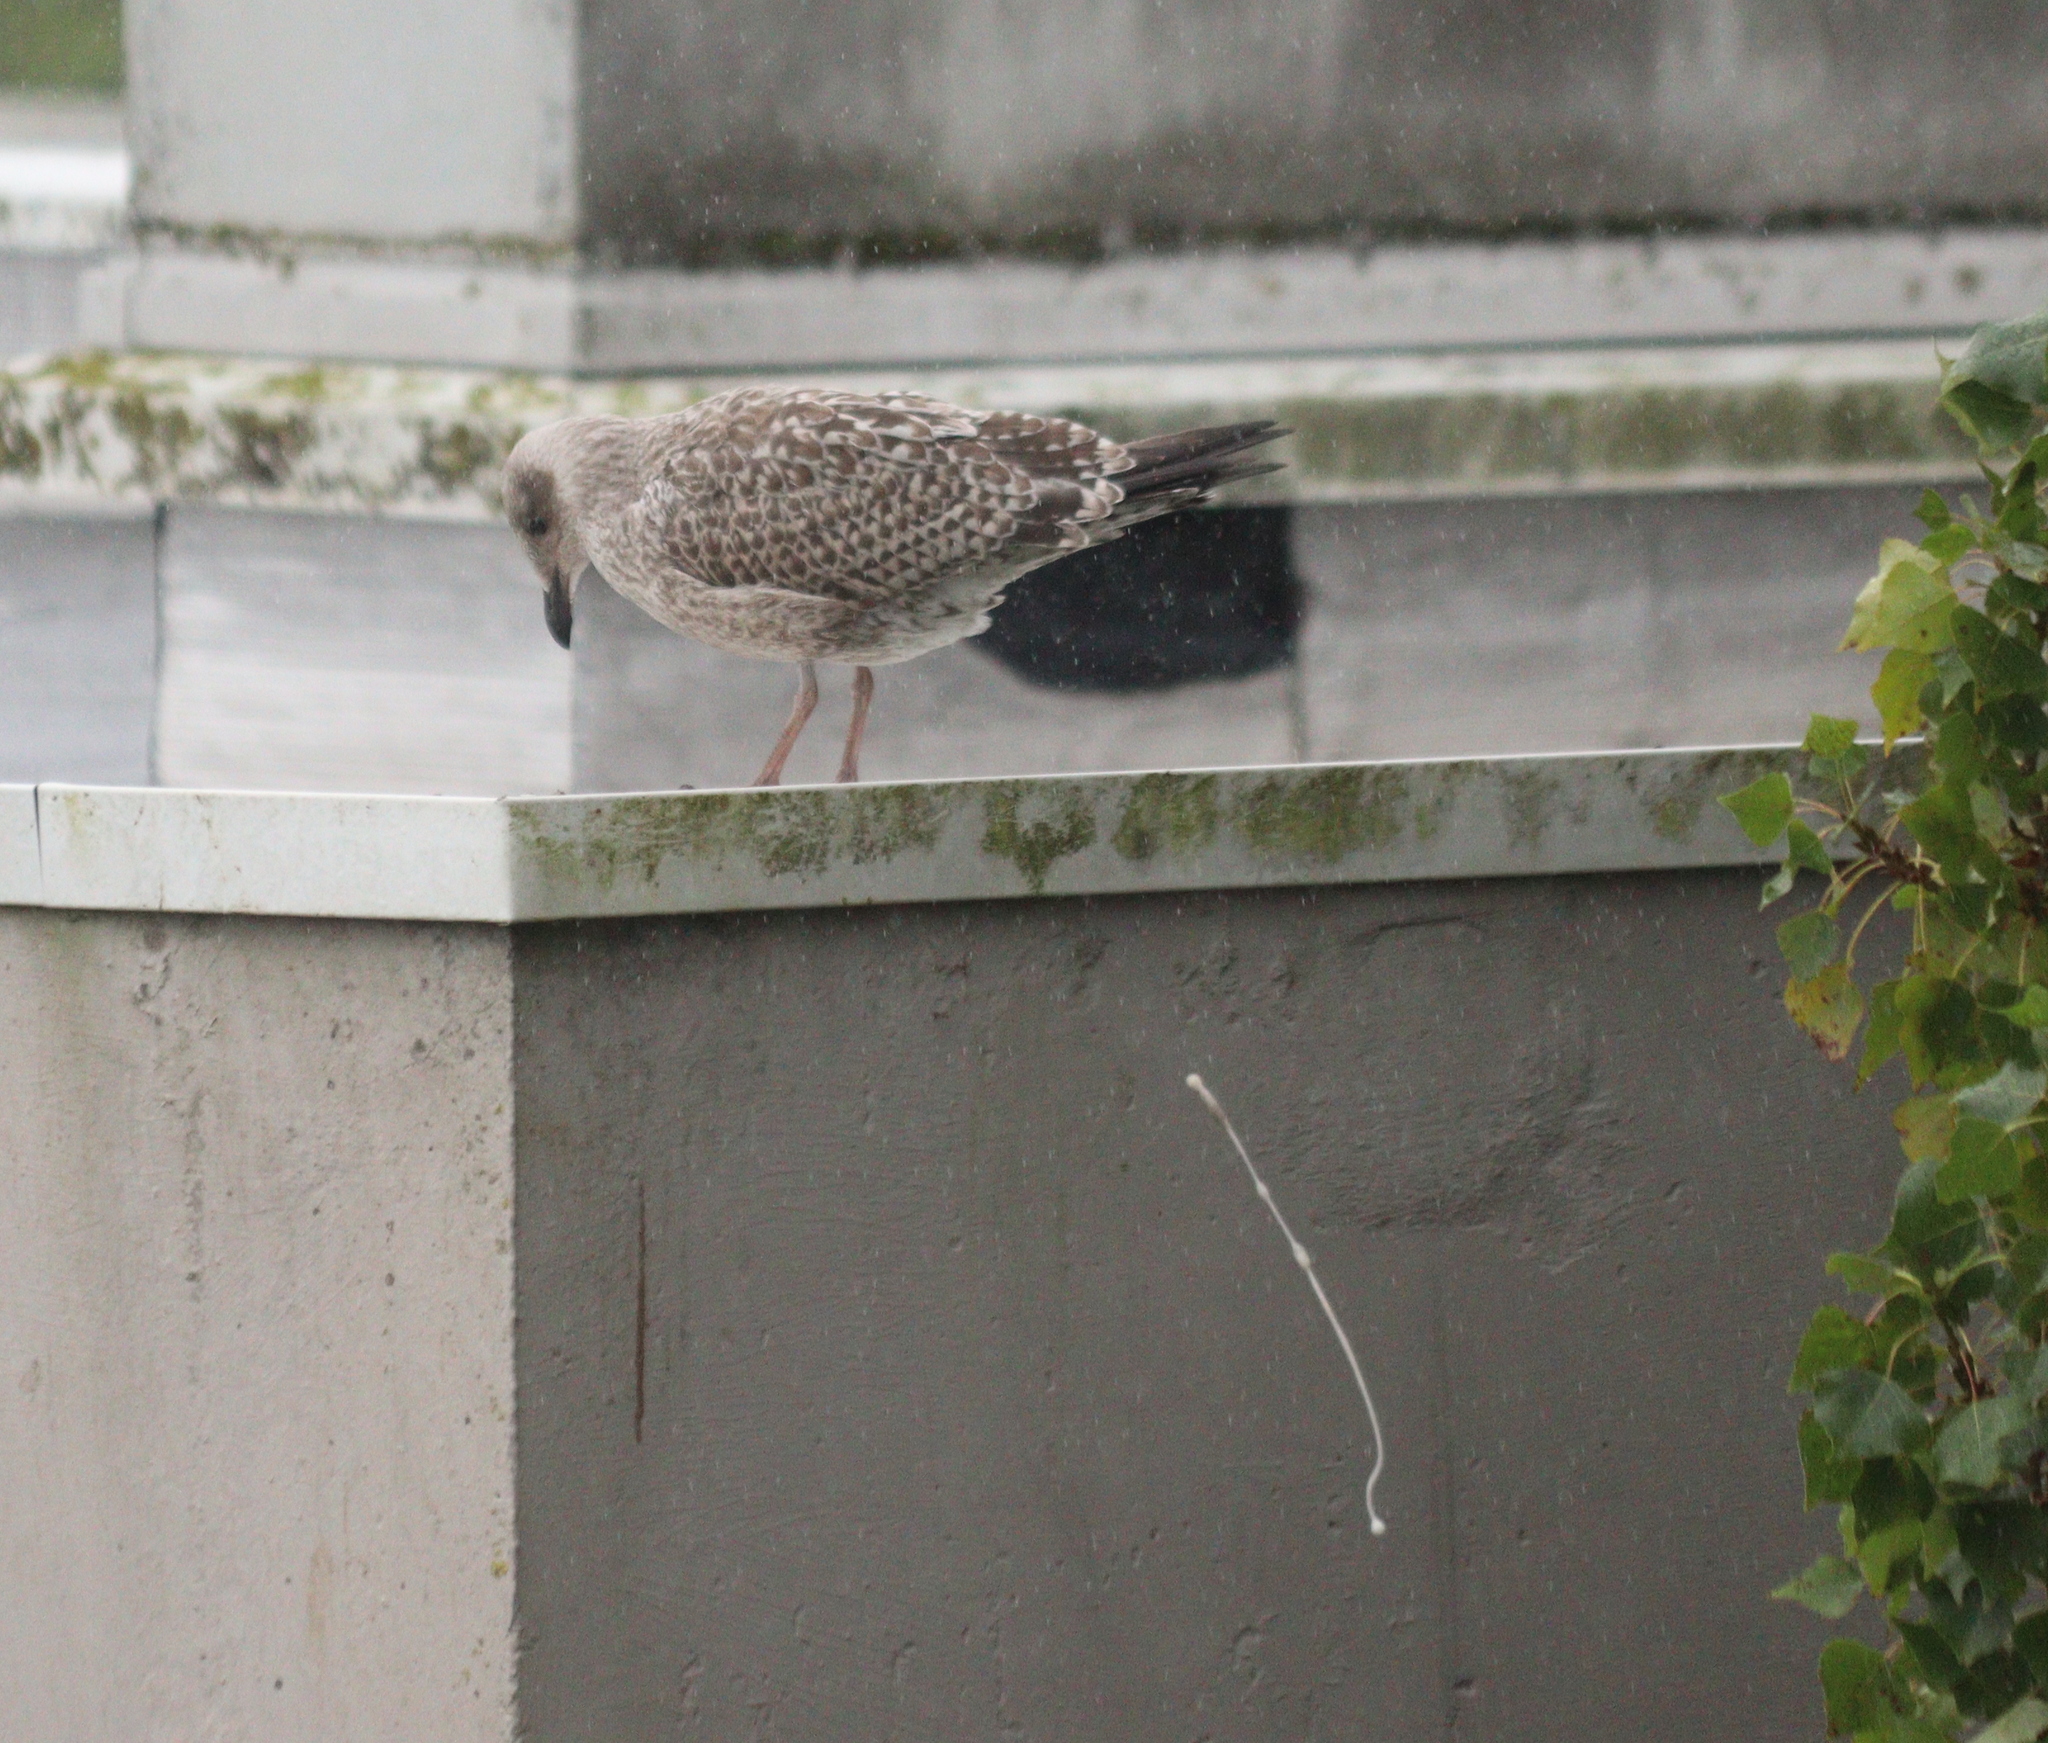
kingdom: Animalia
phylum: Chordata
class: Aves
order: Charadriiformes
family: Laridae
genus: Larus
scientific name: Larus argentatus
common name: Herring gull
